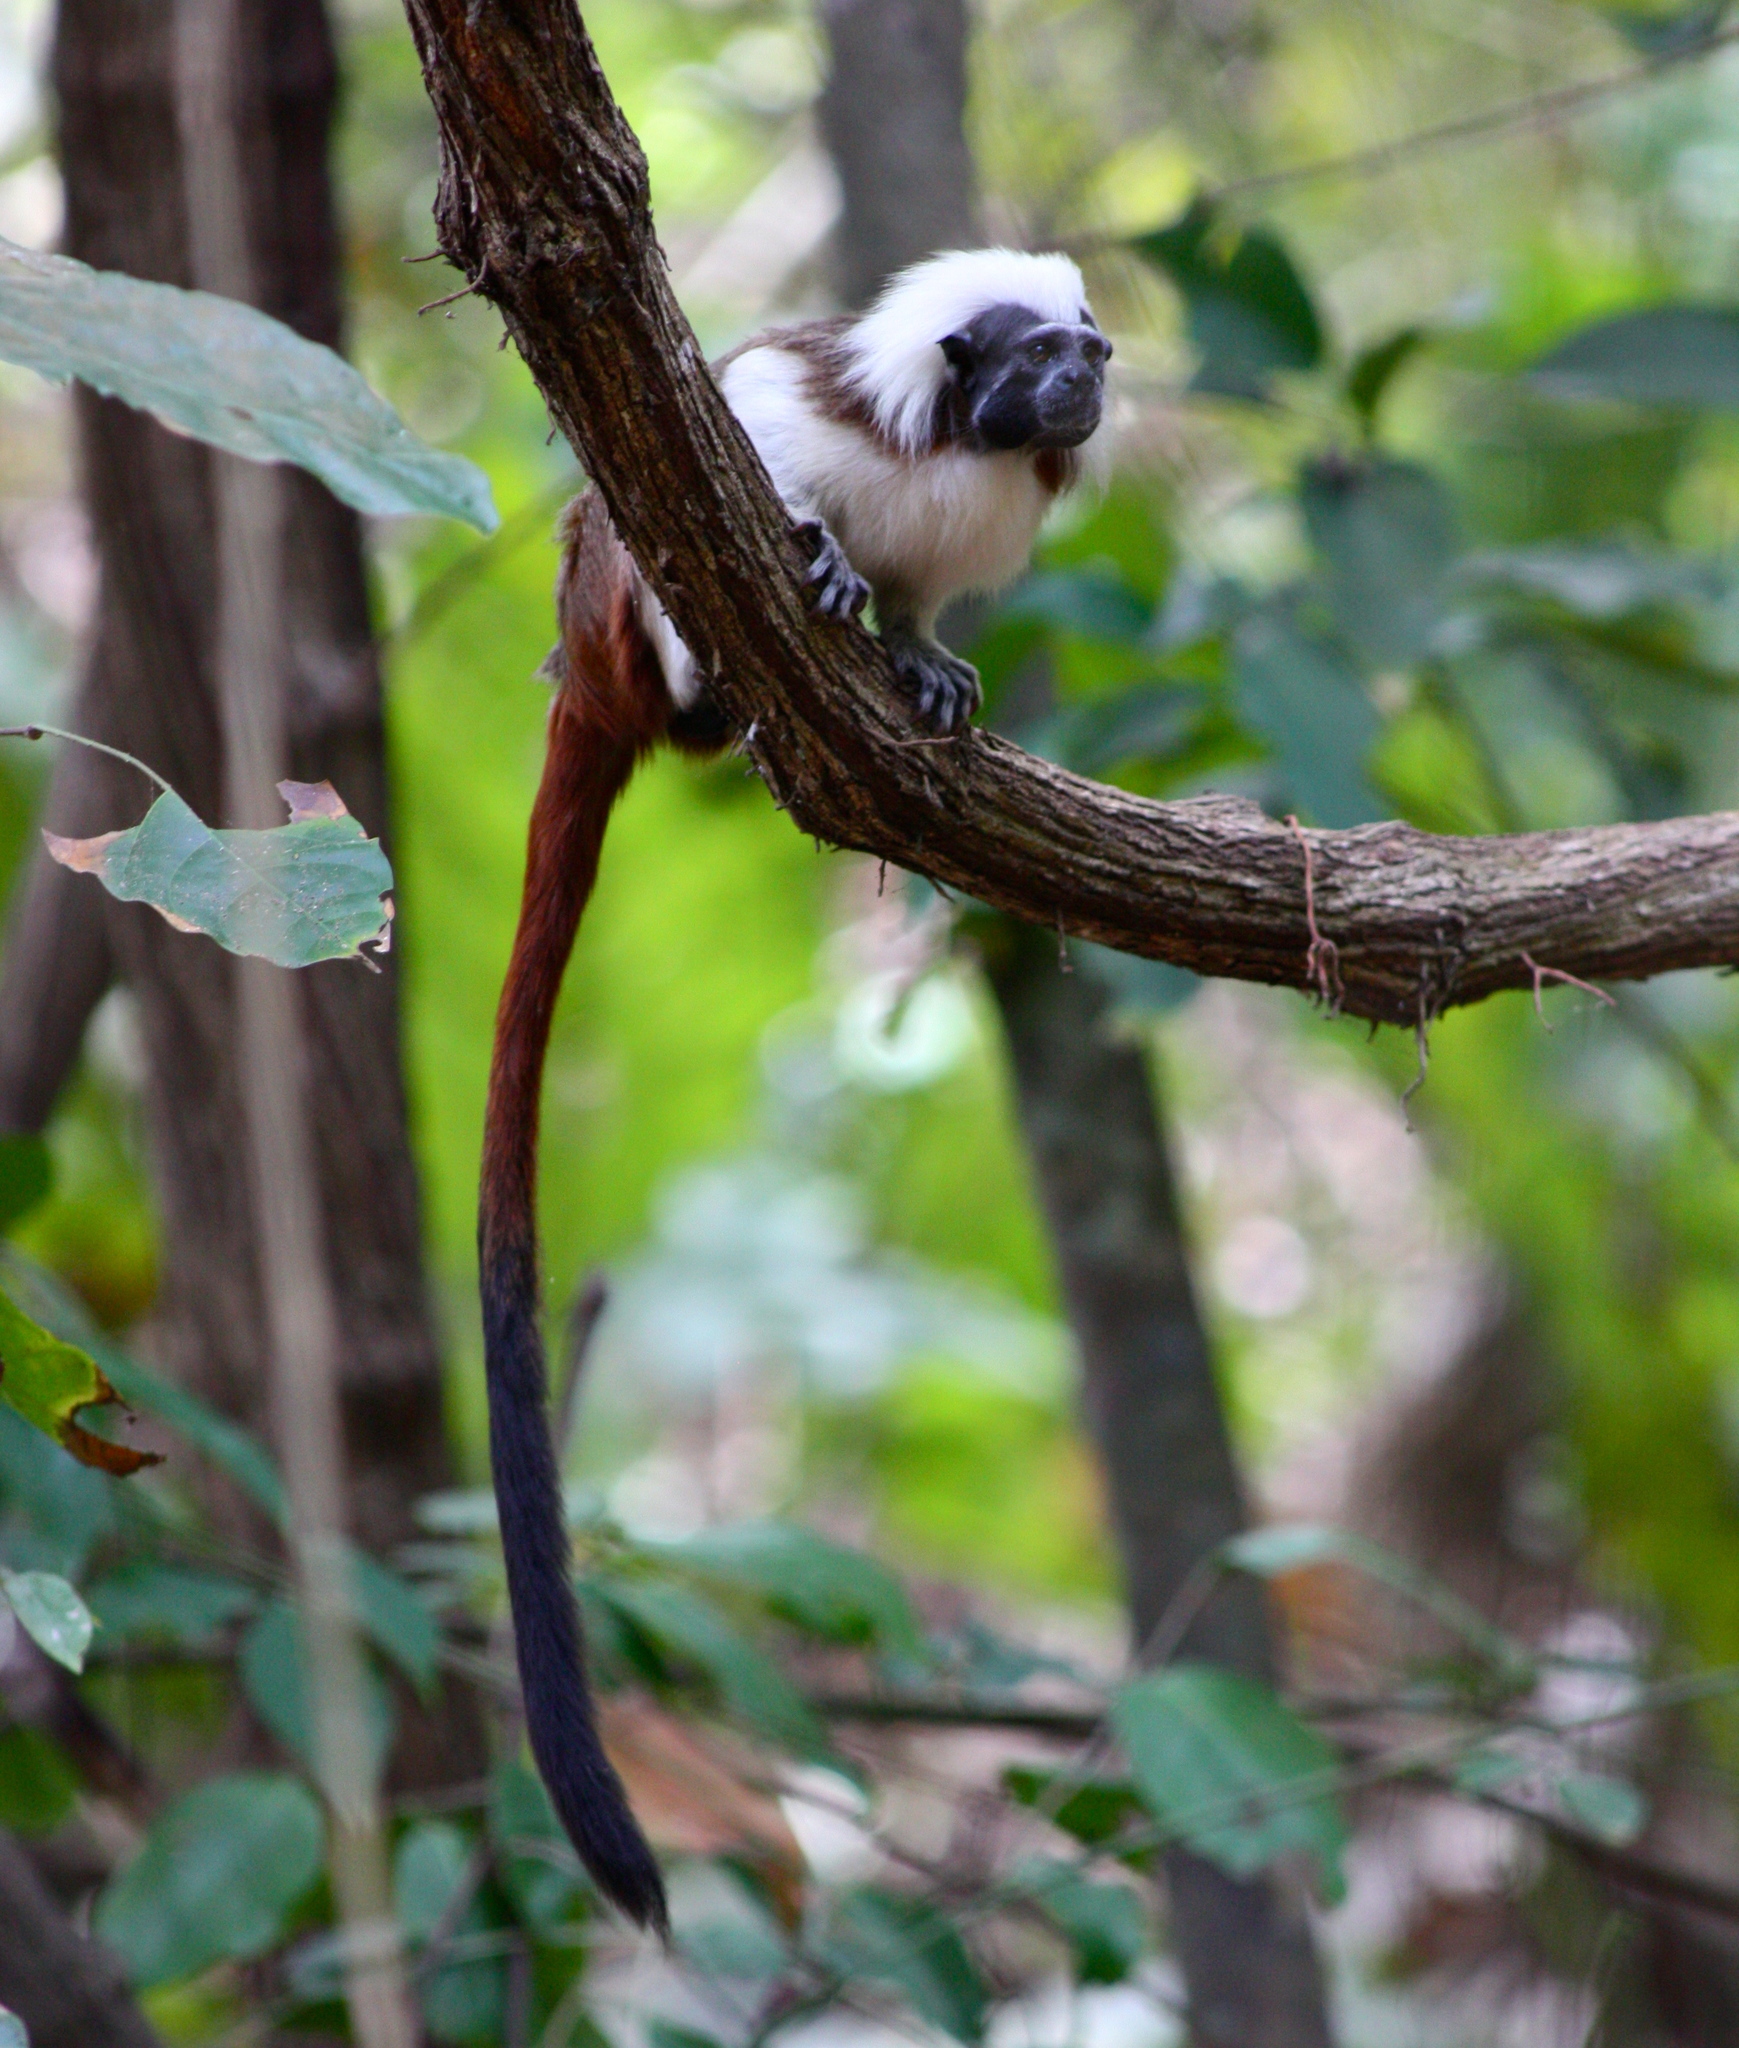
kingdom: Animalia
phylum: Chordata
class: Mammalia
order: Primates
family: Callitrichidae
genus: Saguinus
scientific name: Saguinus oedipus
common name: Cottontop tamarin
